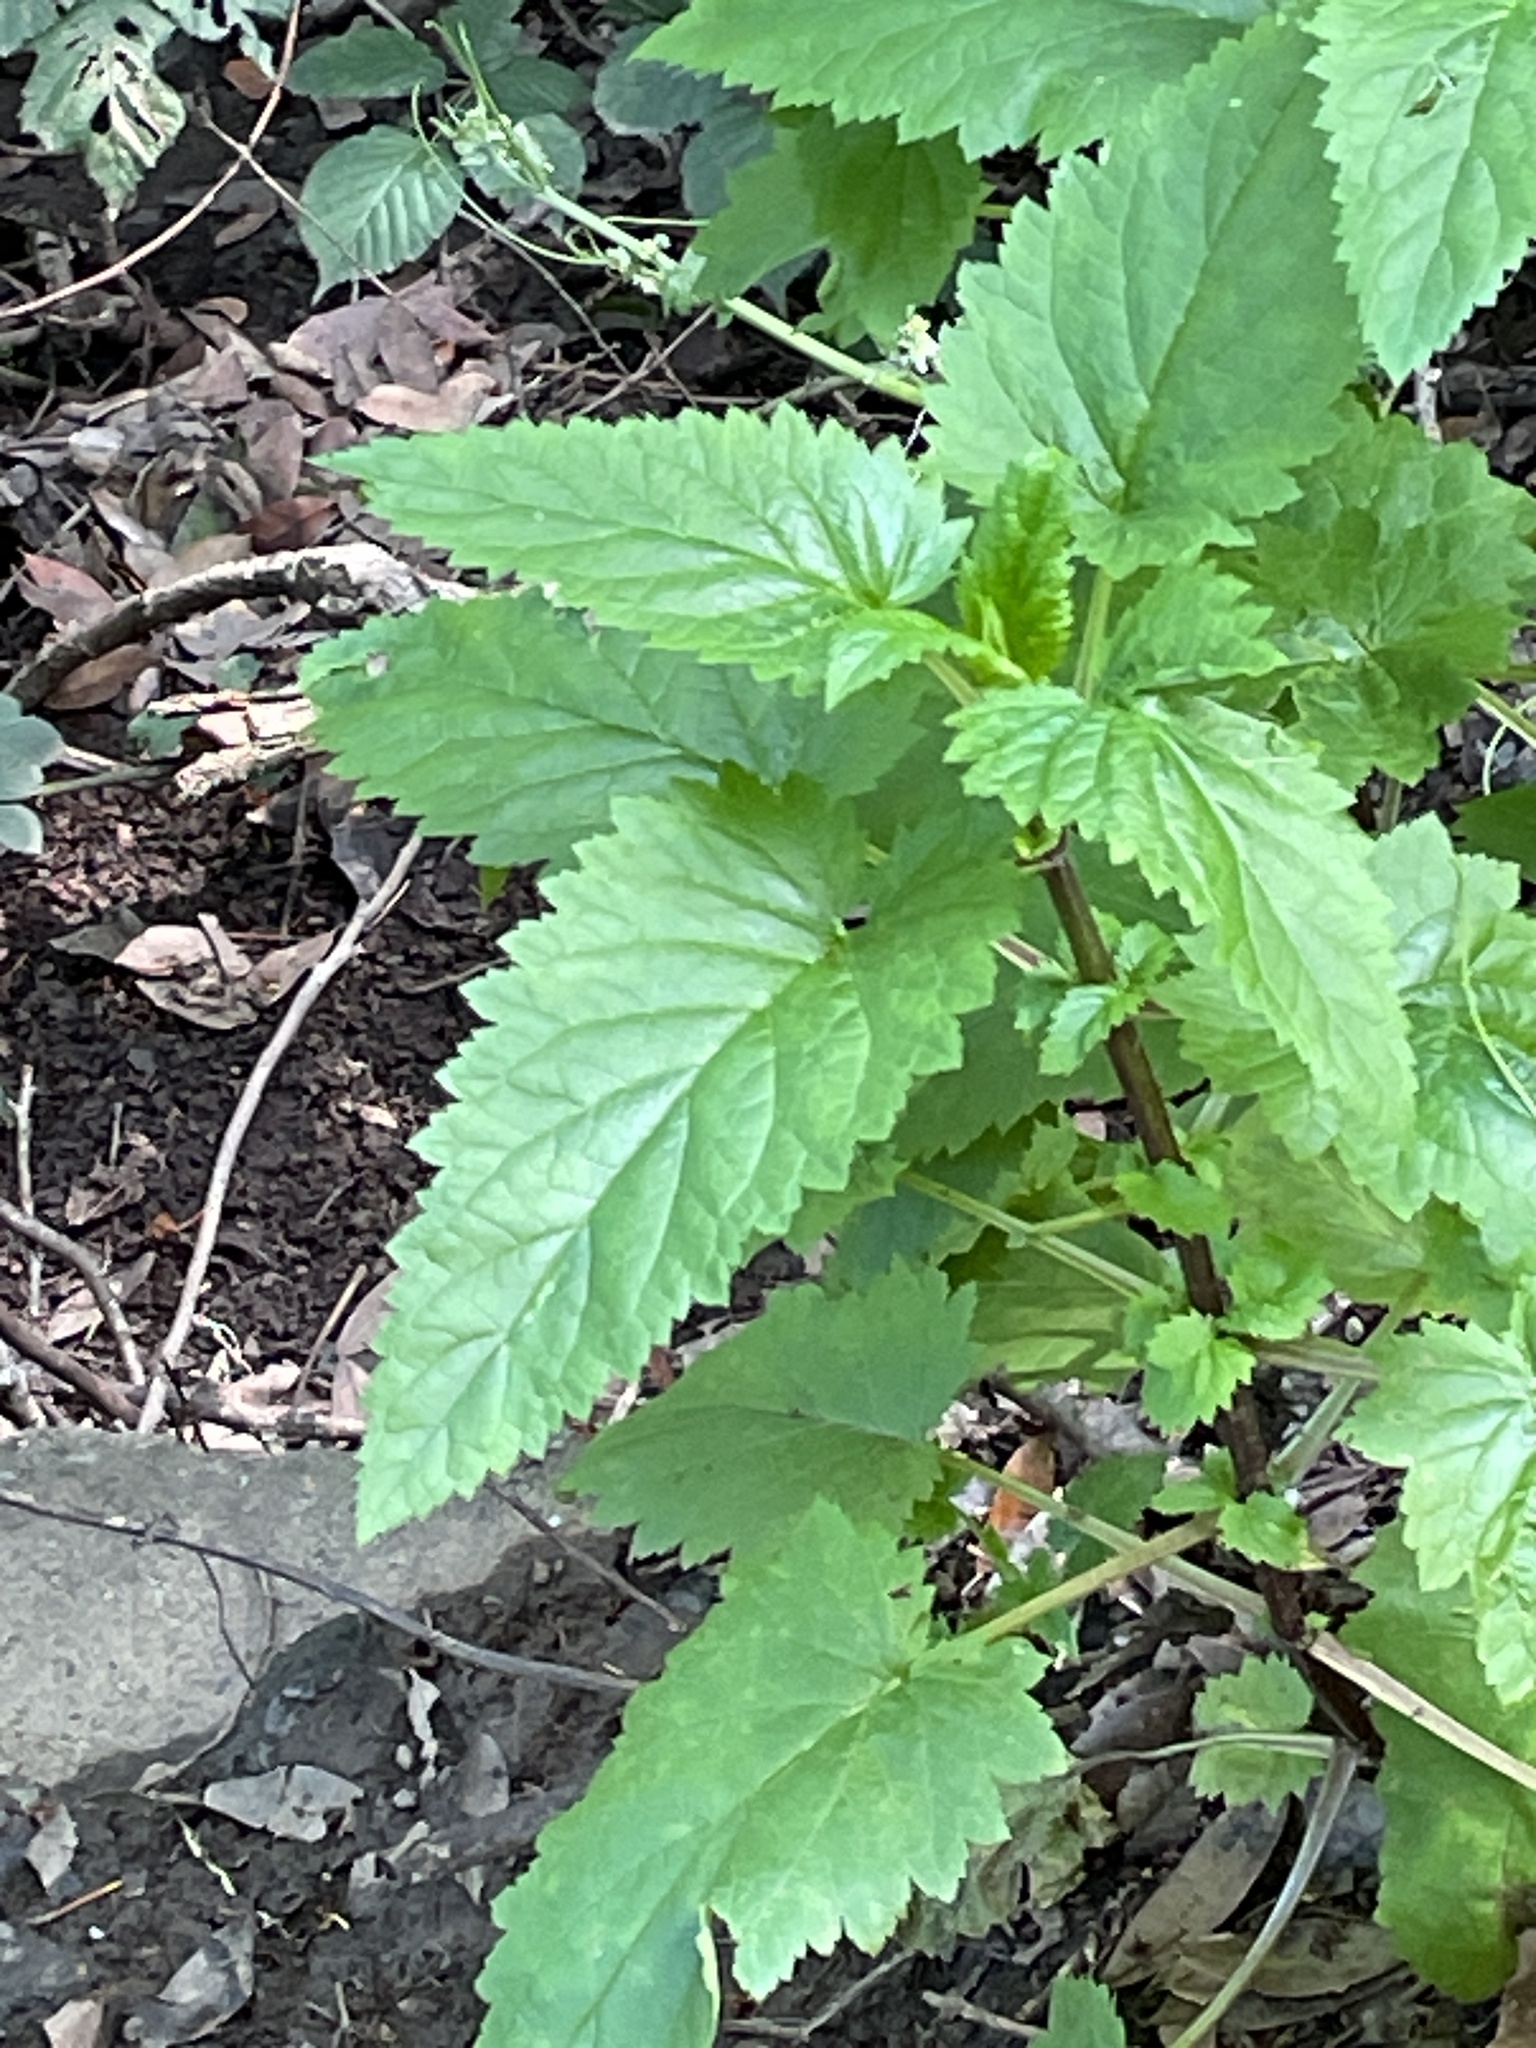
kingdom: Plantae
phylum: Tracheophyta
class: Magnoliopsida
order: Lamiales
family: Scrophulariaceae
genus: Scrophularia
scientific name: Scrophularia californica
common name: California figwort
